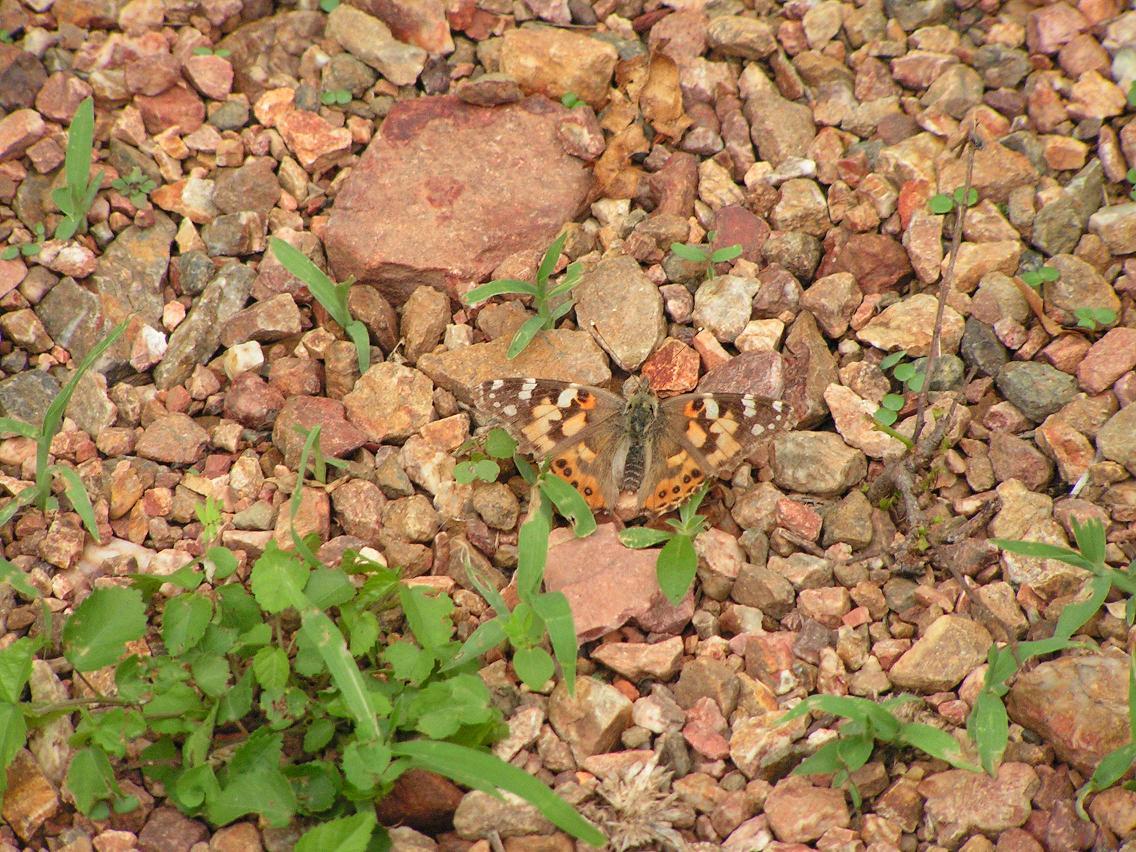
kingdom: Animalia
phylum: Arthropoda
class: Insecta
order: Lepidoptera
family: Nymphalidae
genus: Vanessa
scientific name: Vanessa cardui
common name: Painted lady
